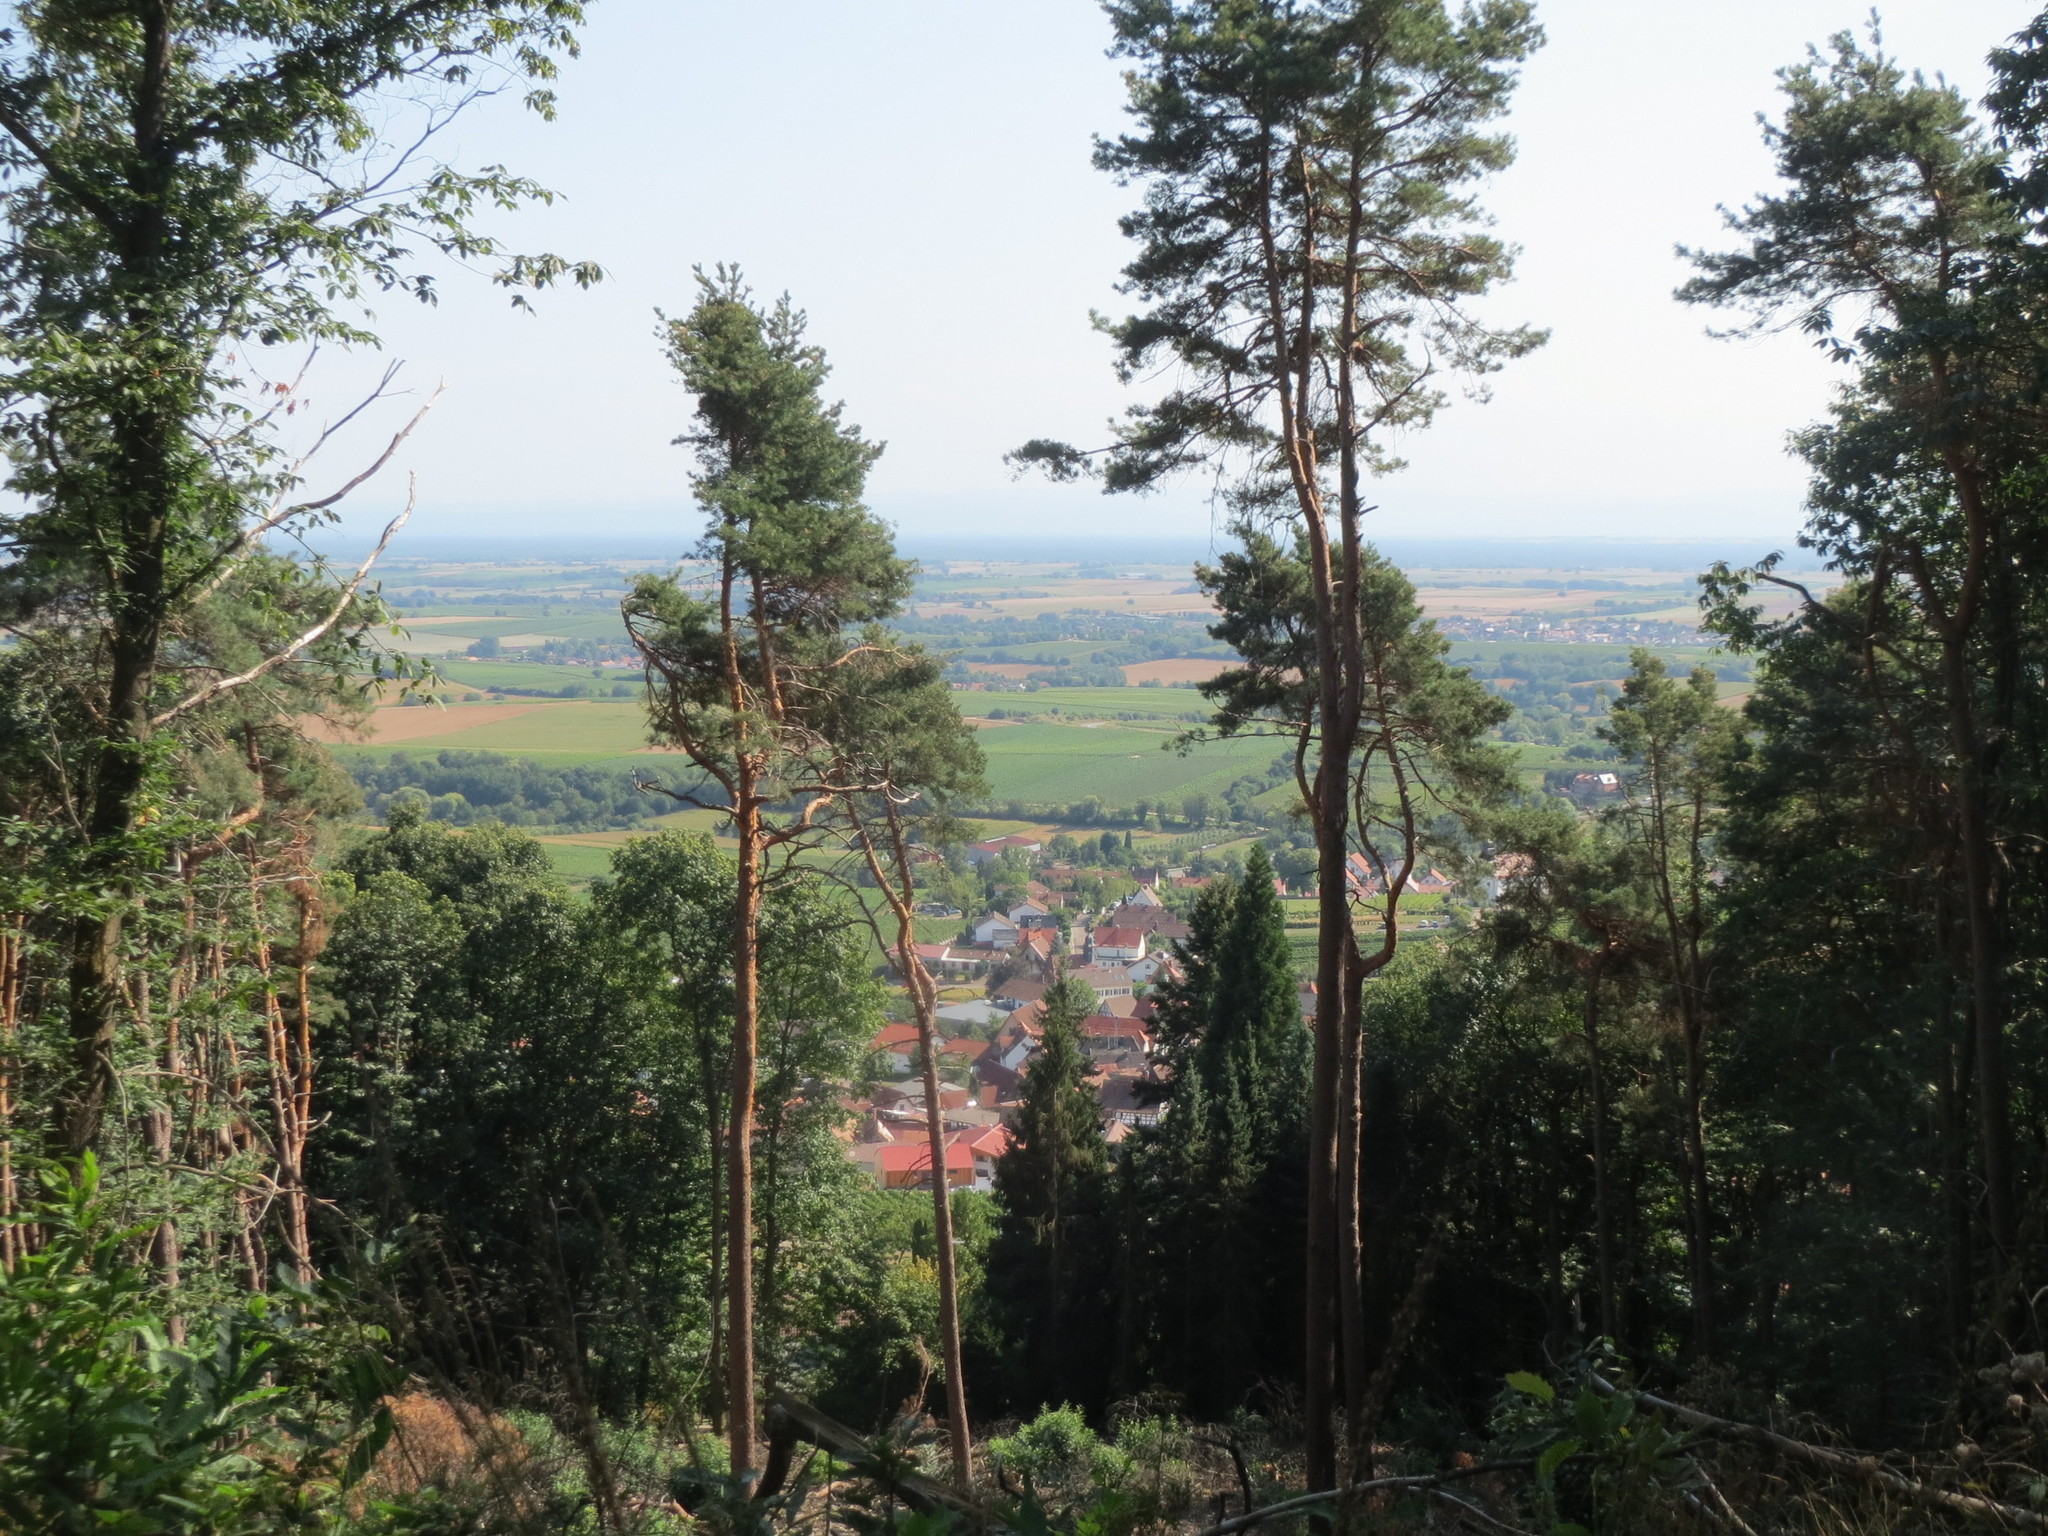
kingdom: Plantae
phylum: Tracheophyta
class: Pinopsida
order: Pinales
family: Pinaceae
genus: Pinus
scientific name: Pinus sylvestris
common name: Scots pine
